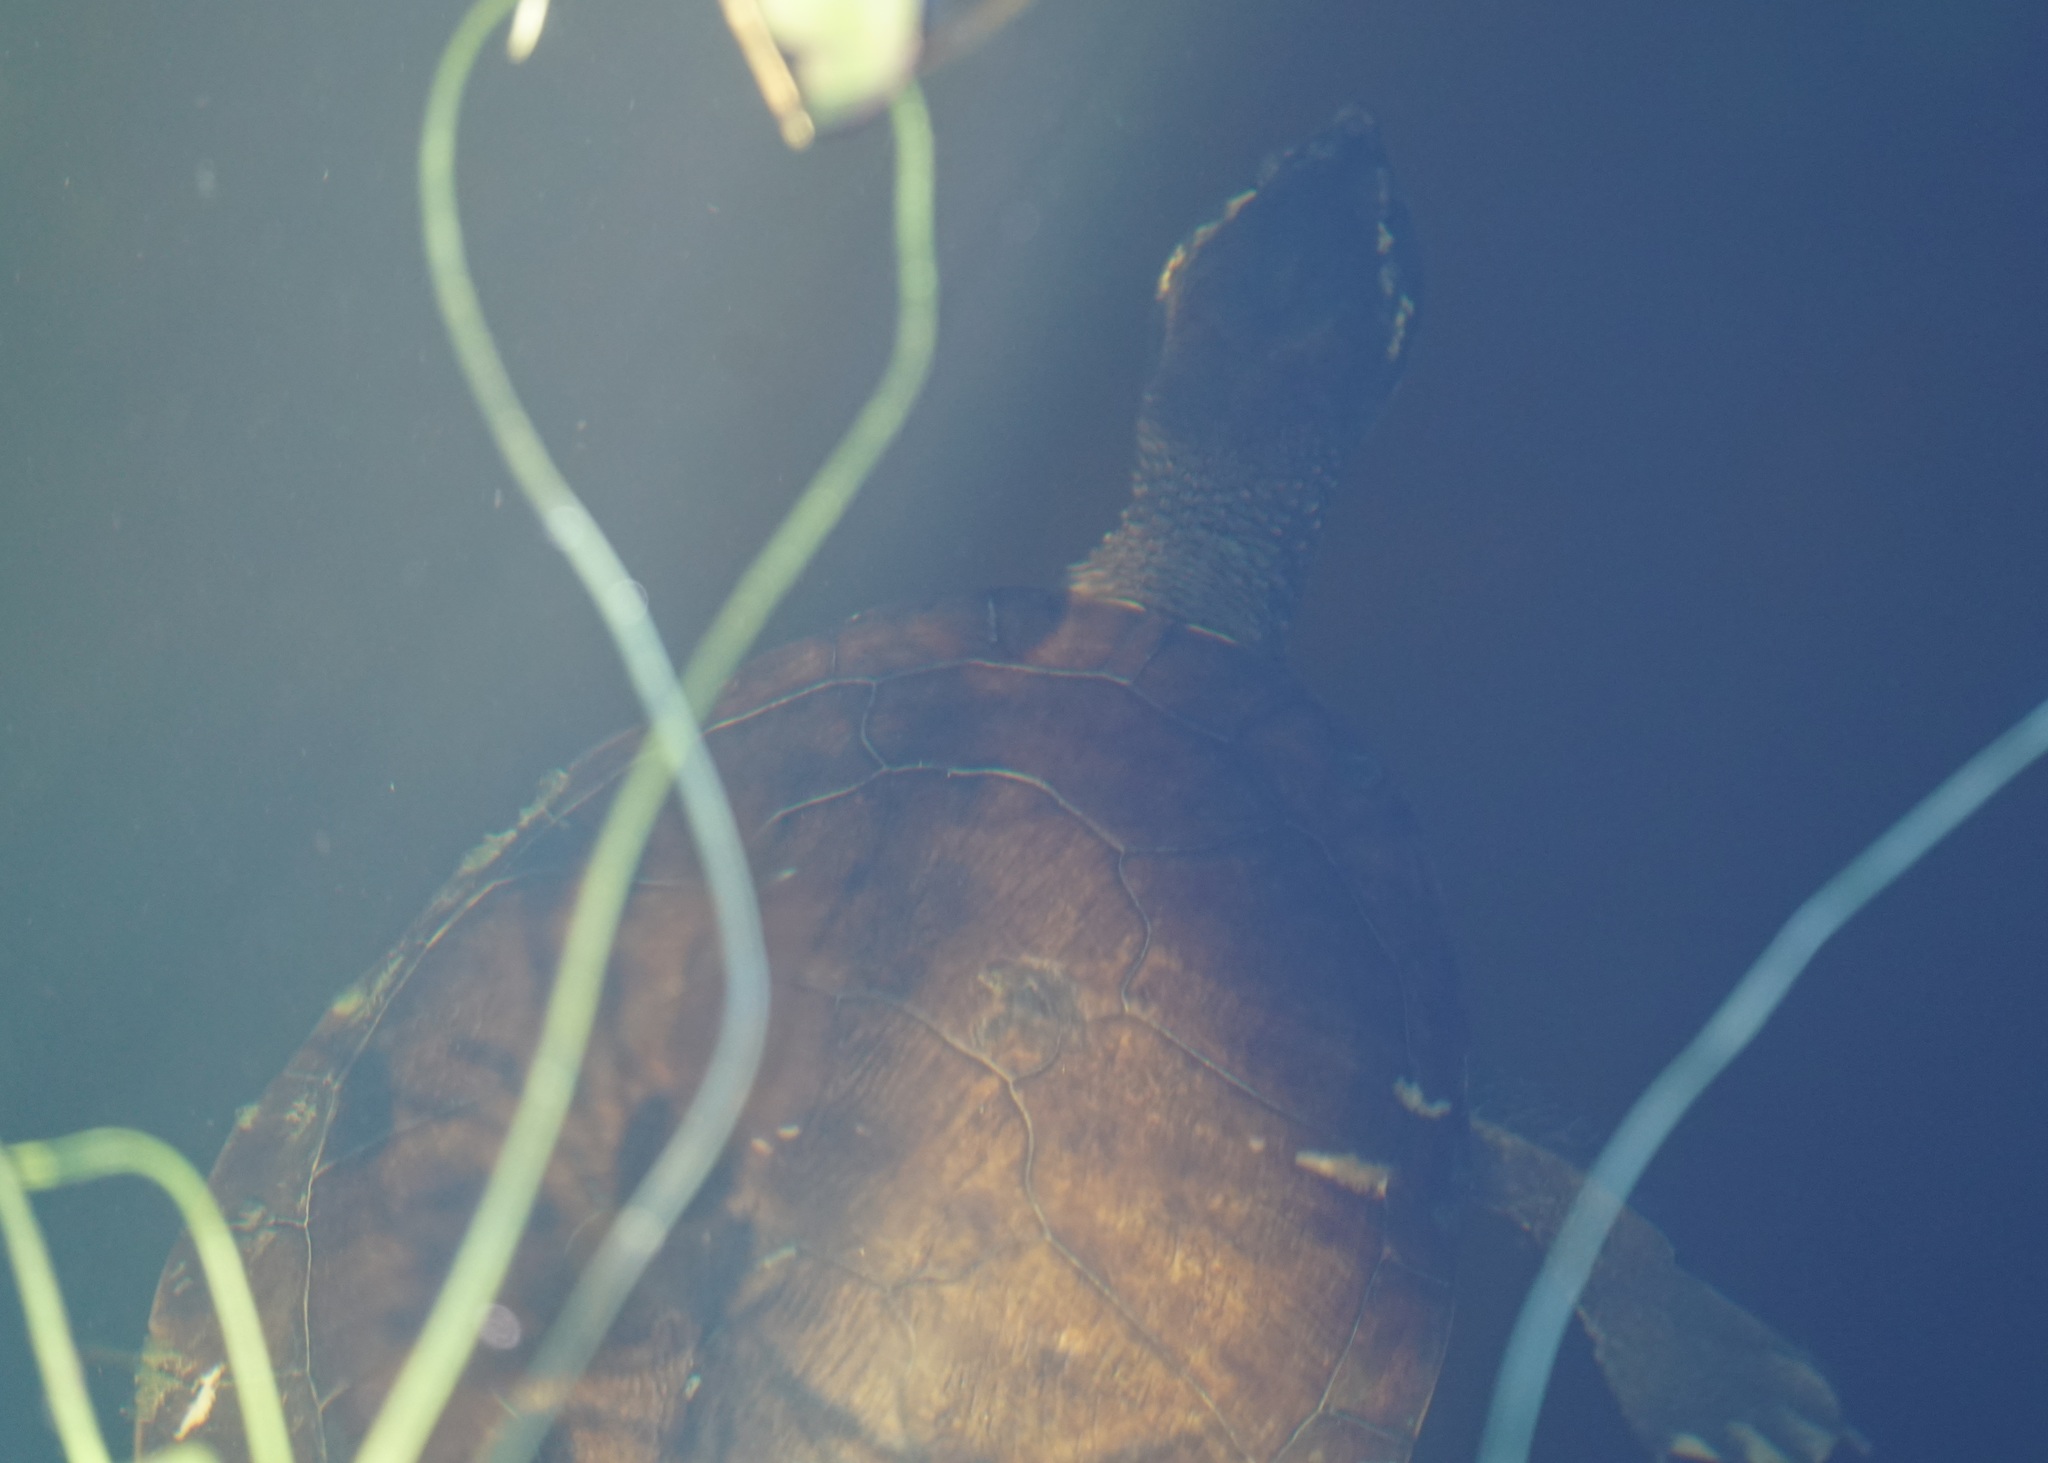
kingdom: Animalia
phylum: Chordata
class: Testudines
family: Chelidae
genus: Emydura
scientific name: Emydura macquarii
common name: Murray river turtle
